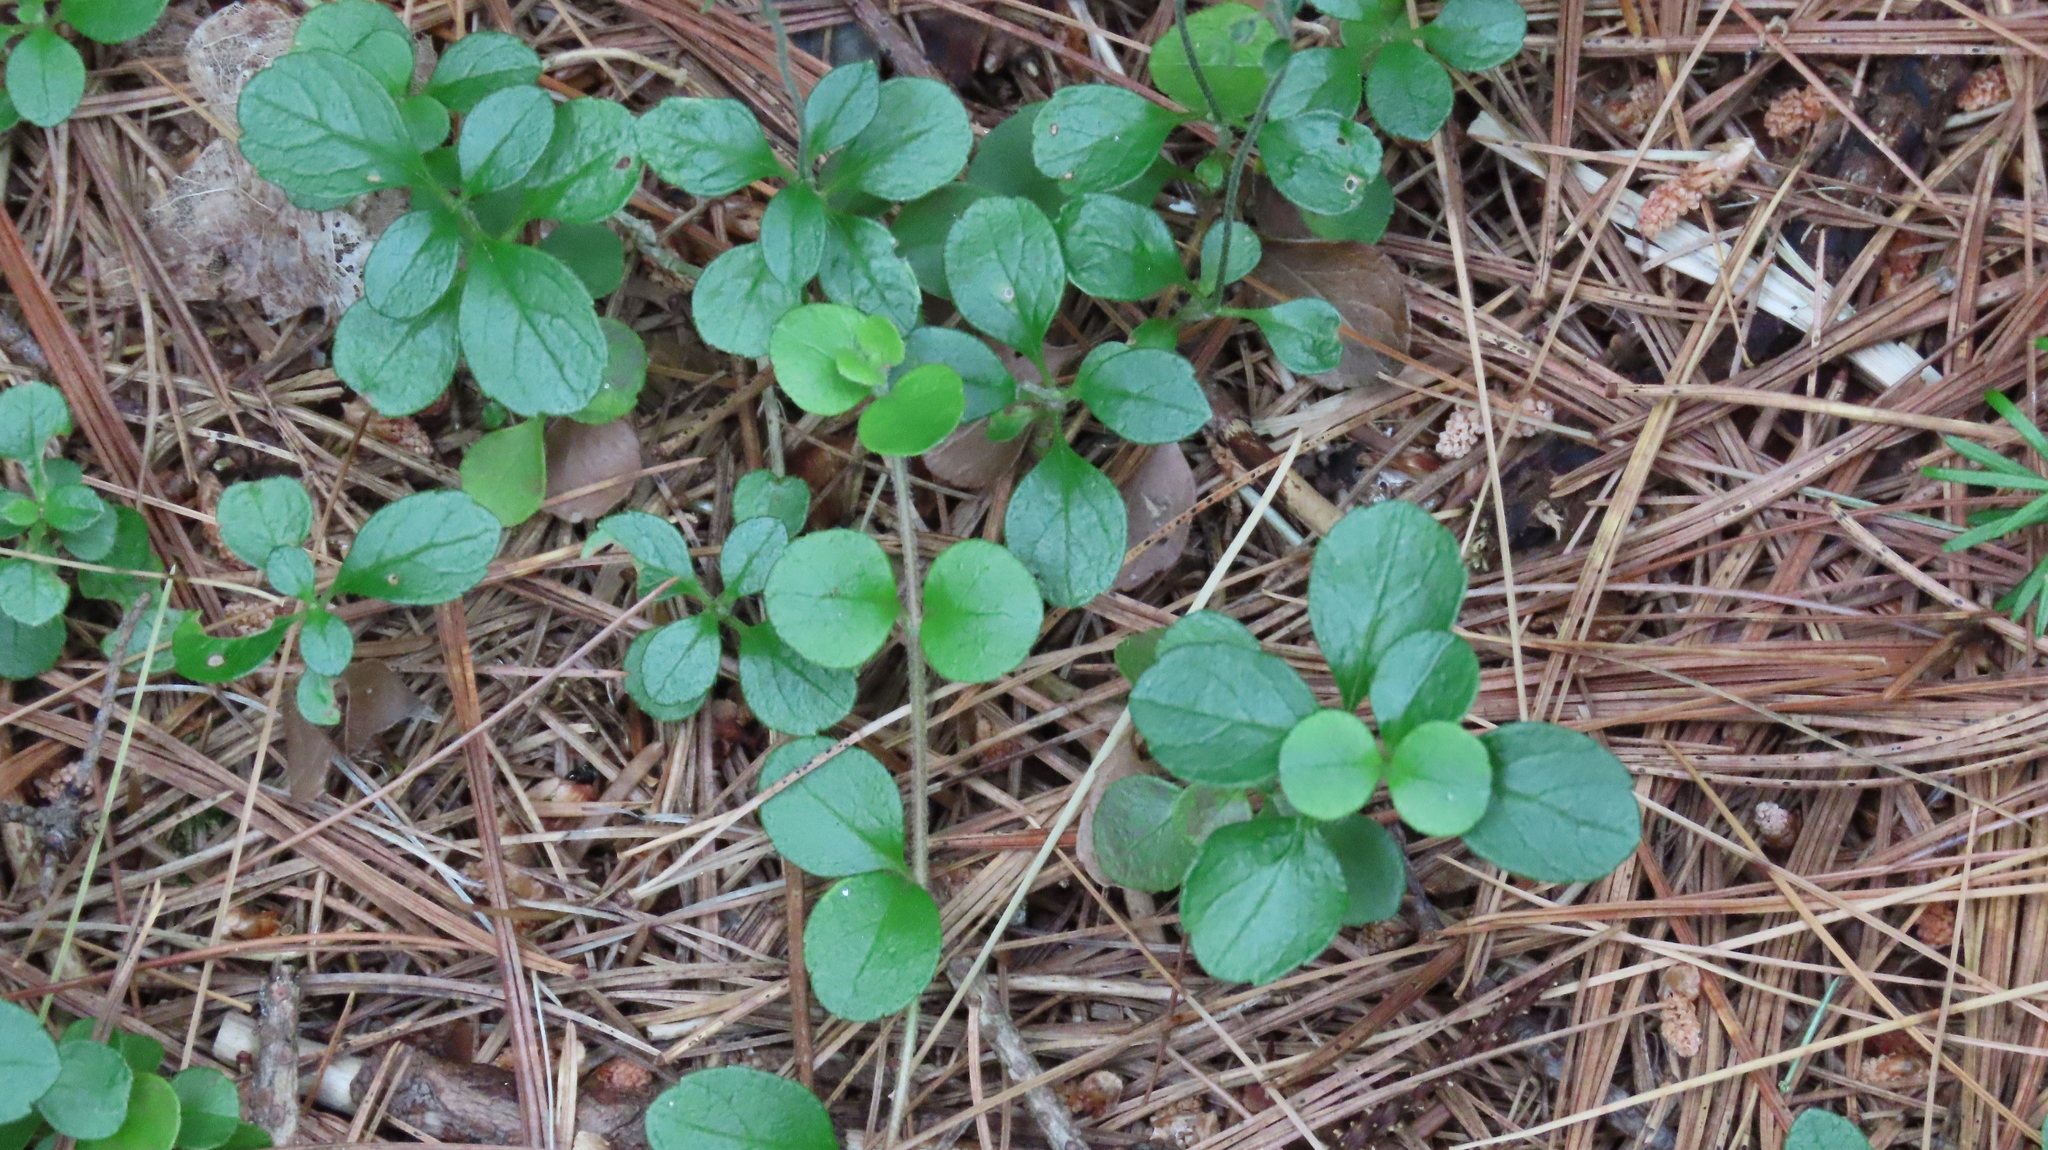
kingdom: Plantae
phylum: Tracheophyta
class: Magnoliopsida
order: Dipsacales
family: Caprifoliaceae
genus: Linnaea
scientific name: Linnaea borealis
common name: Twinflower
